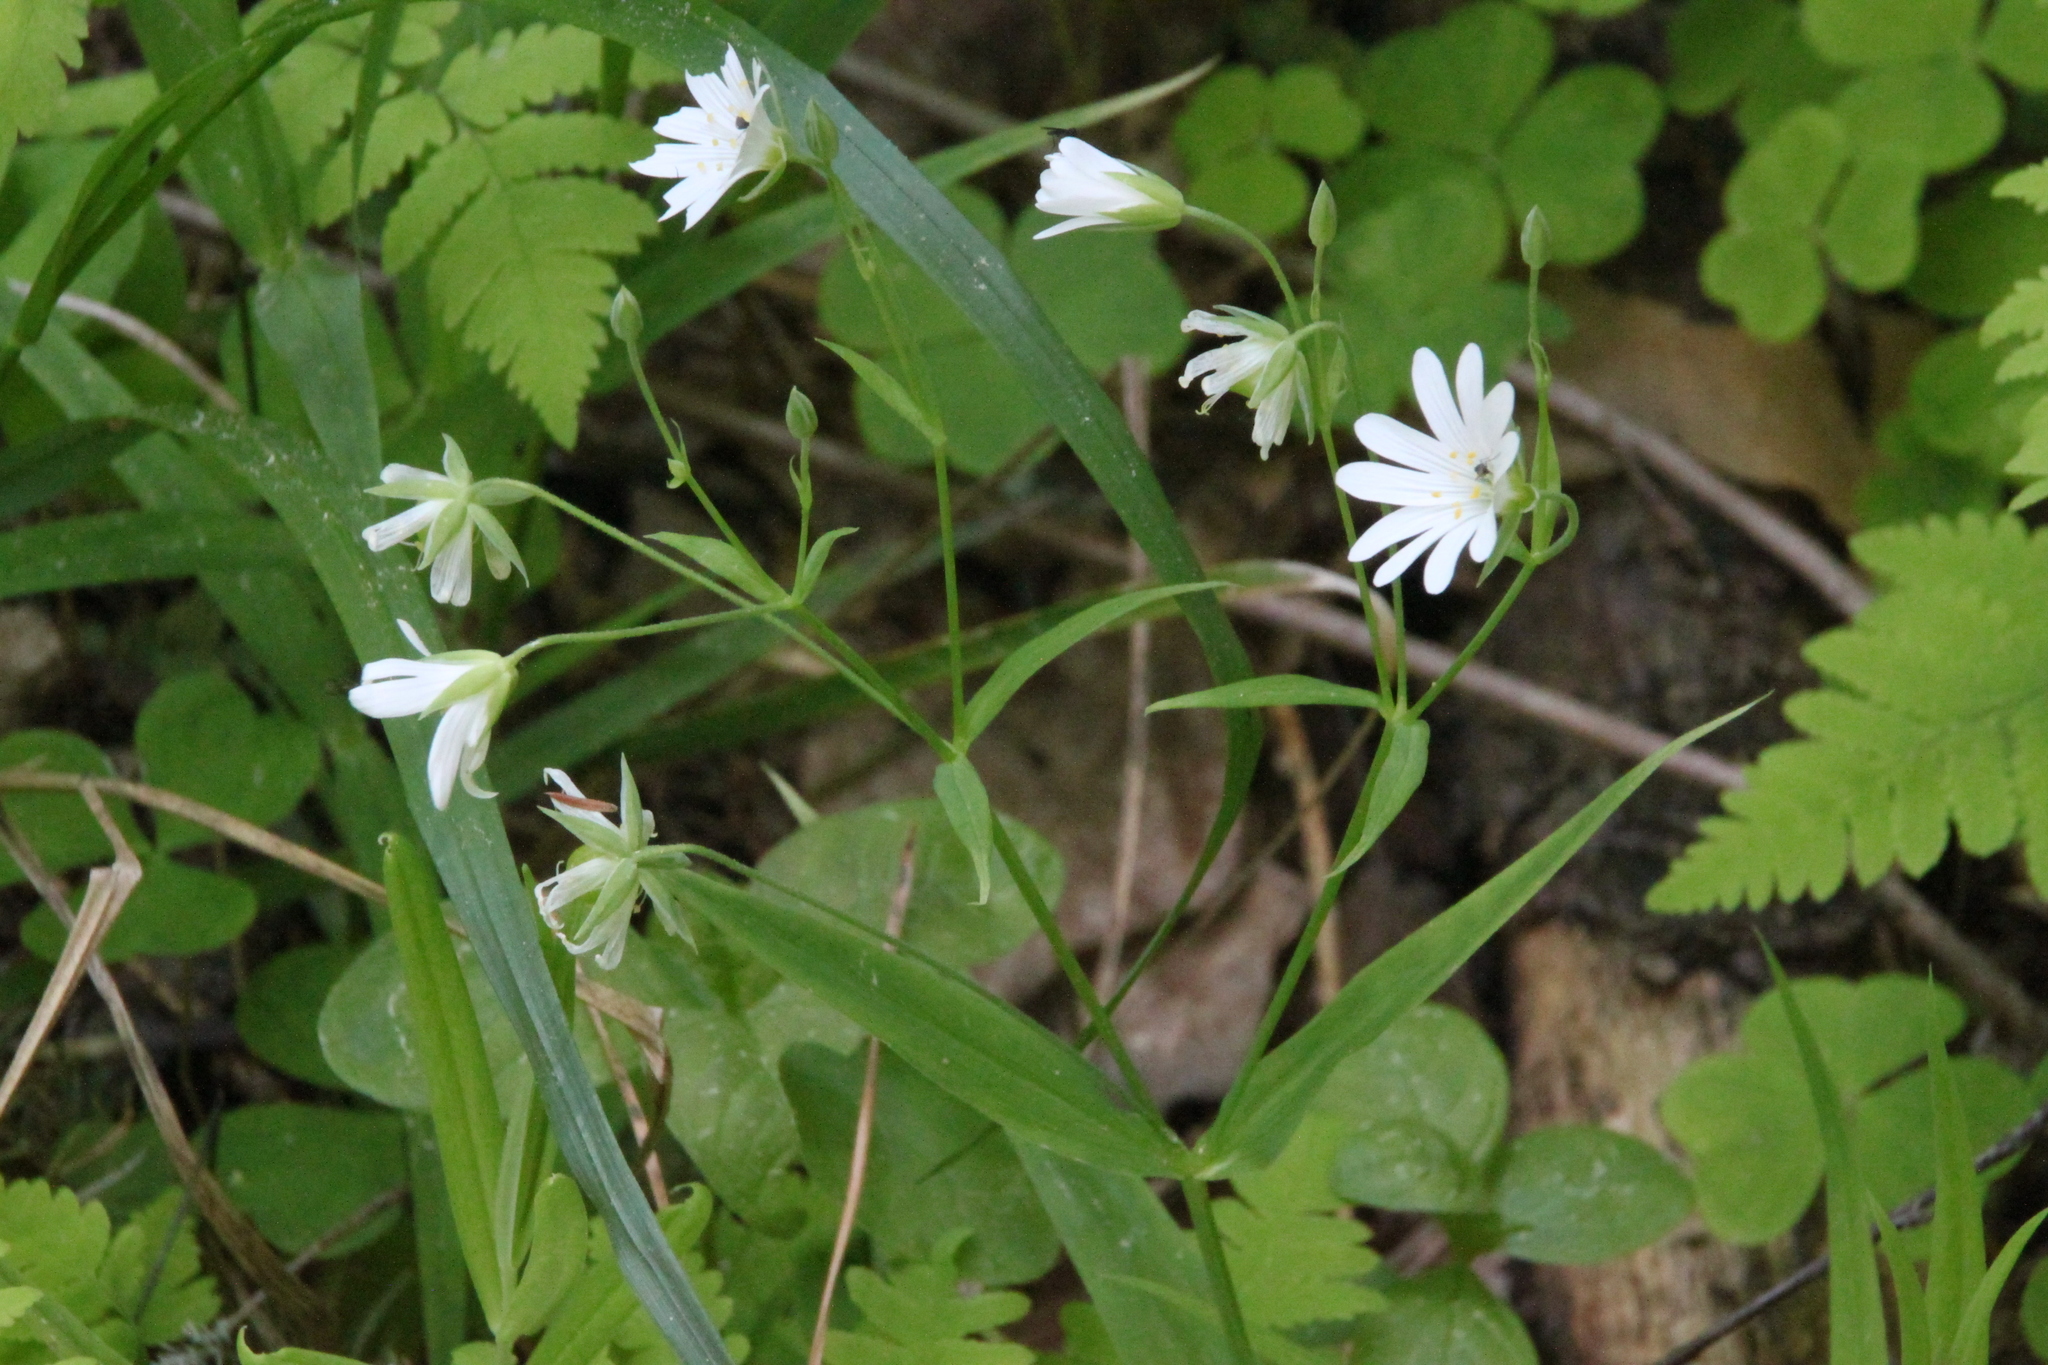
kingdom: Plantae
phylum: Tracheophyta
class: Magnoliopsida
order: Caryophyllales
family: Caryophyllaceae
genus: Rabelera
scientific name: Rabelera holostea
